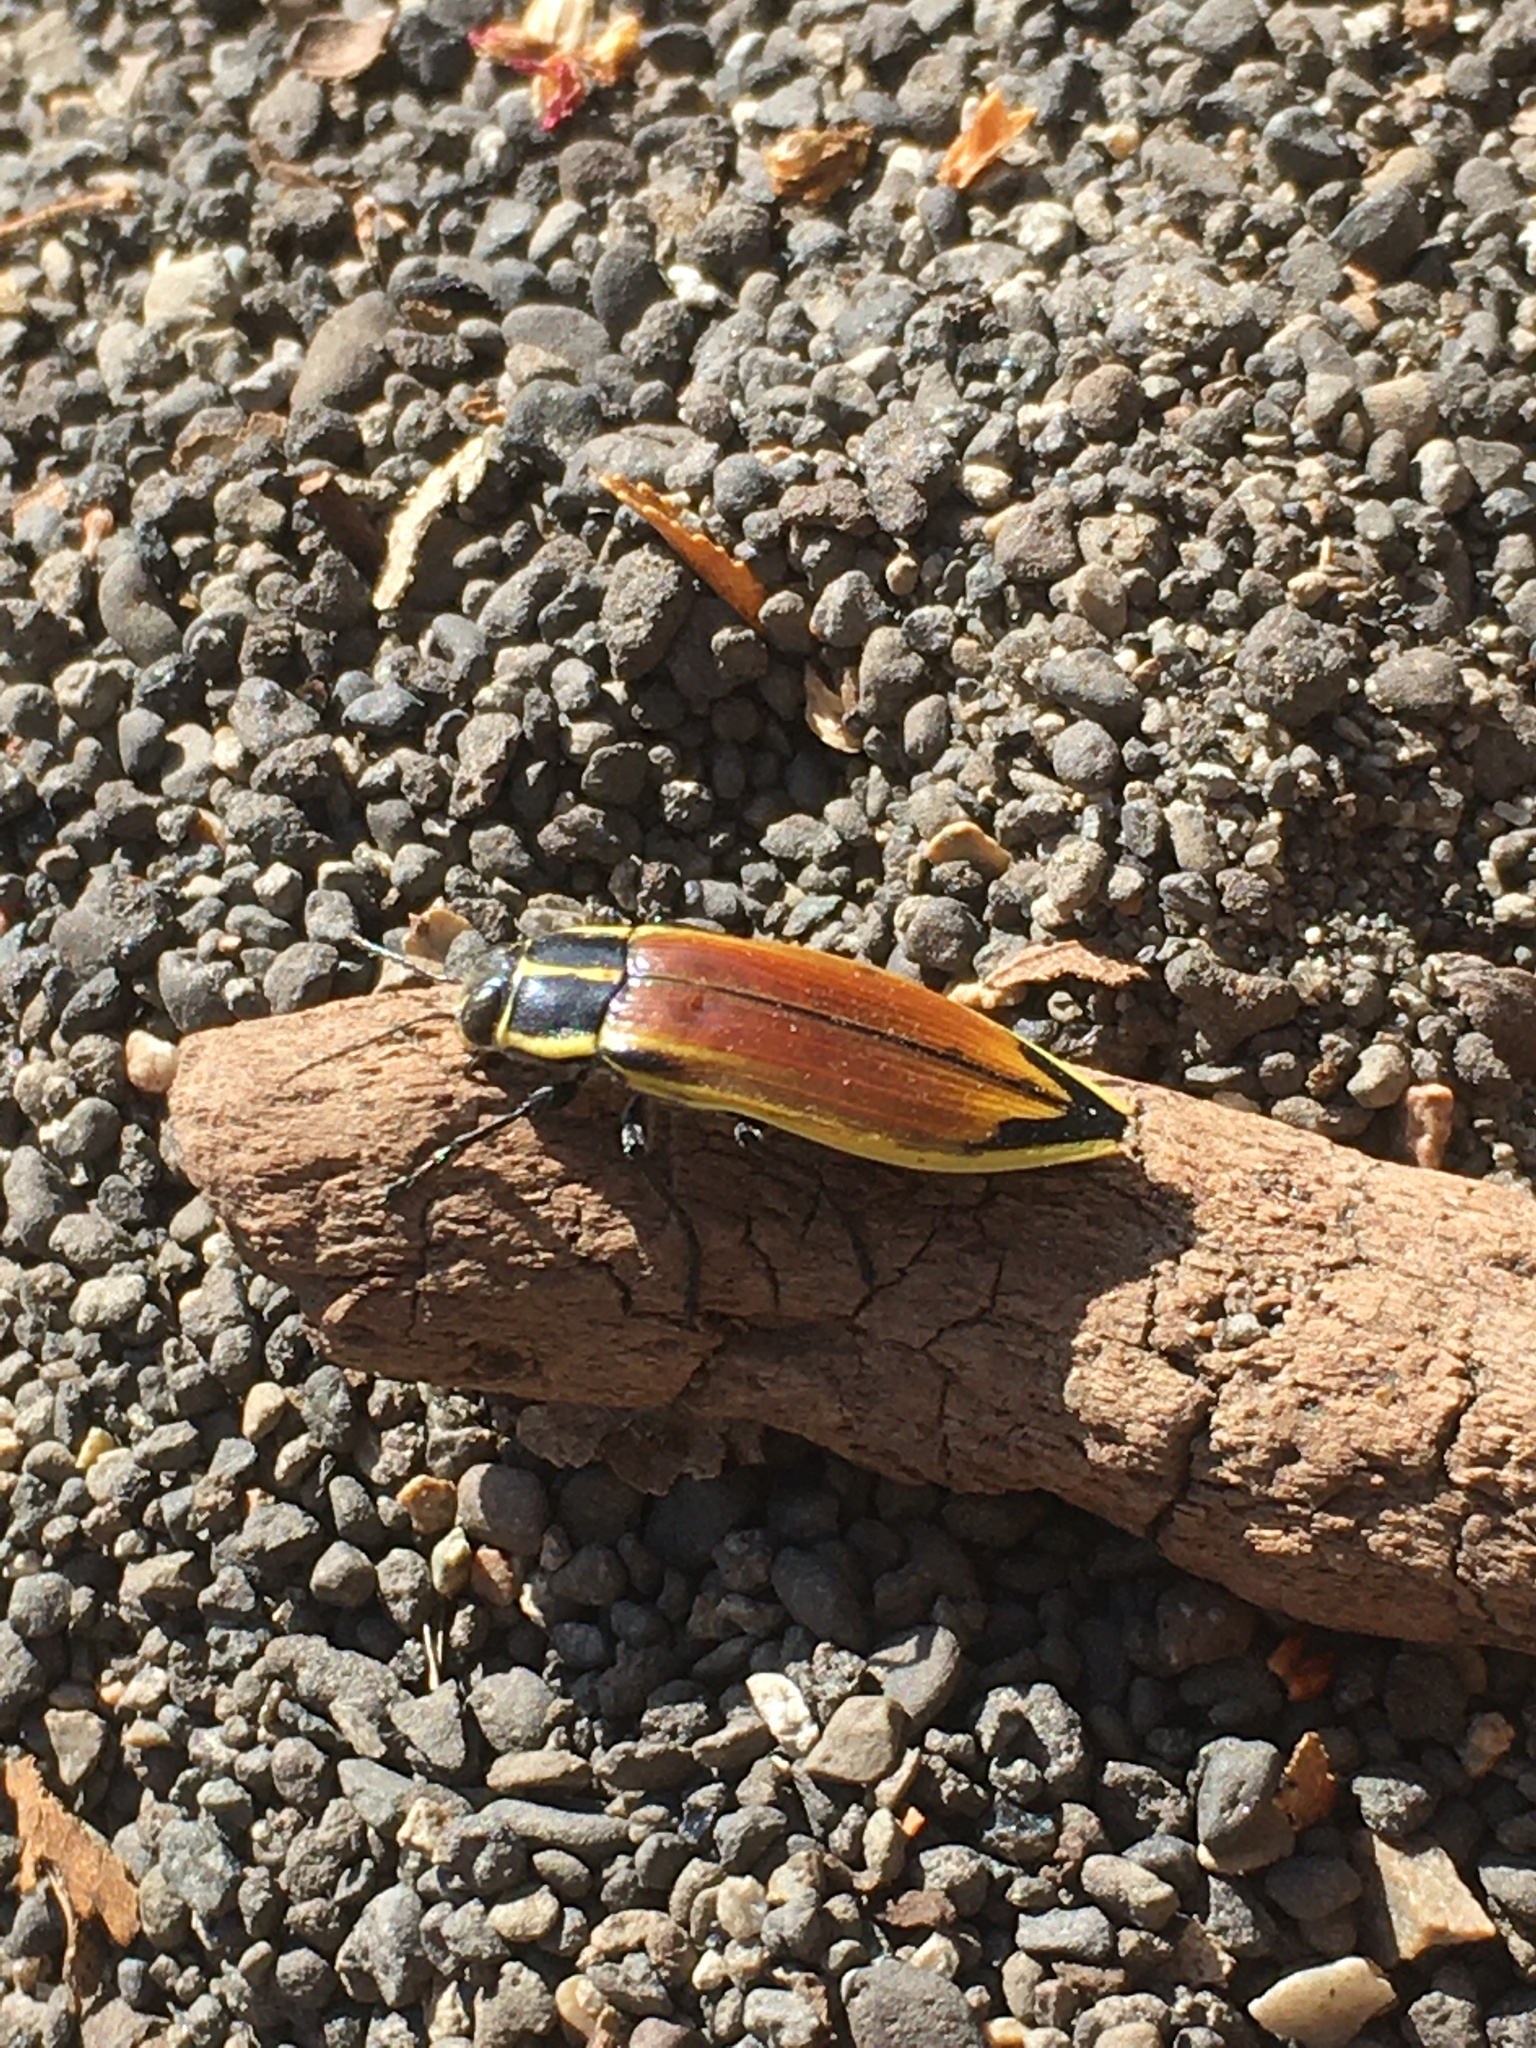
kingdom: Animalia
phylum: Arthropoda
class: Insecta
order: Coleoptera
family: Buprestidae
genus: Epistomentis
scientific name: Epistomentis pictus
